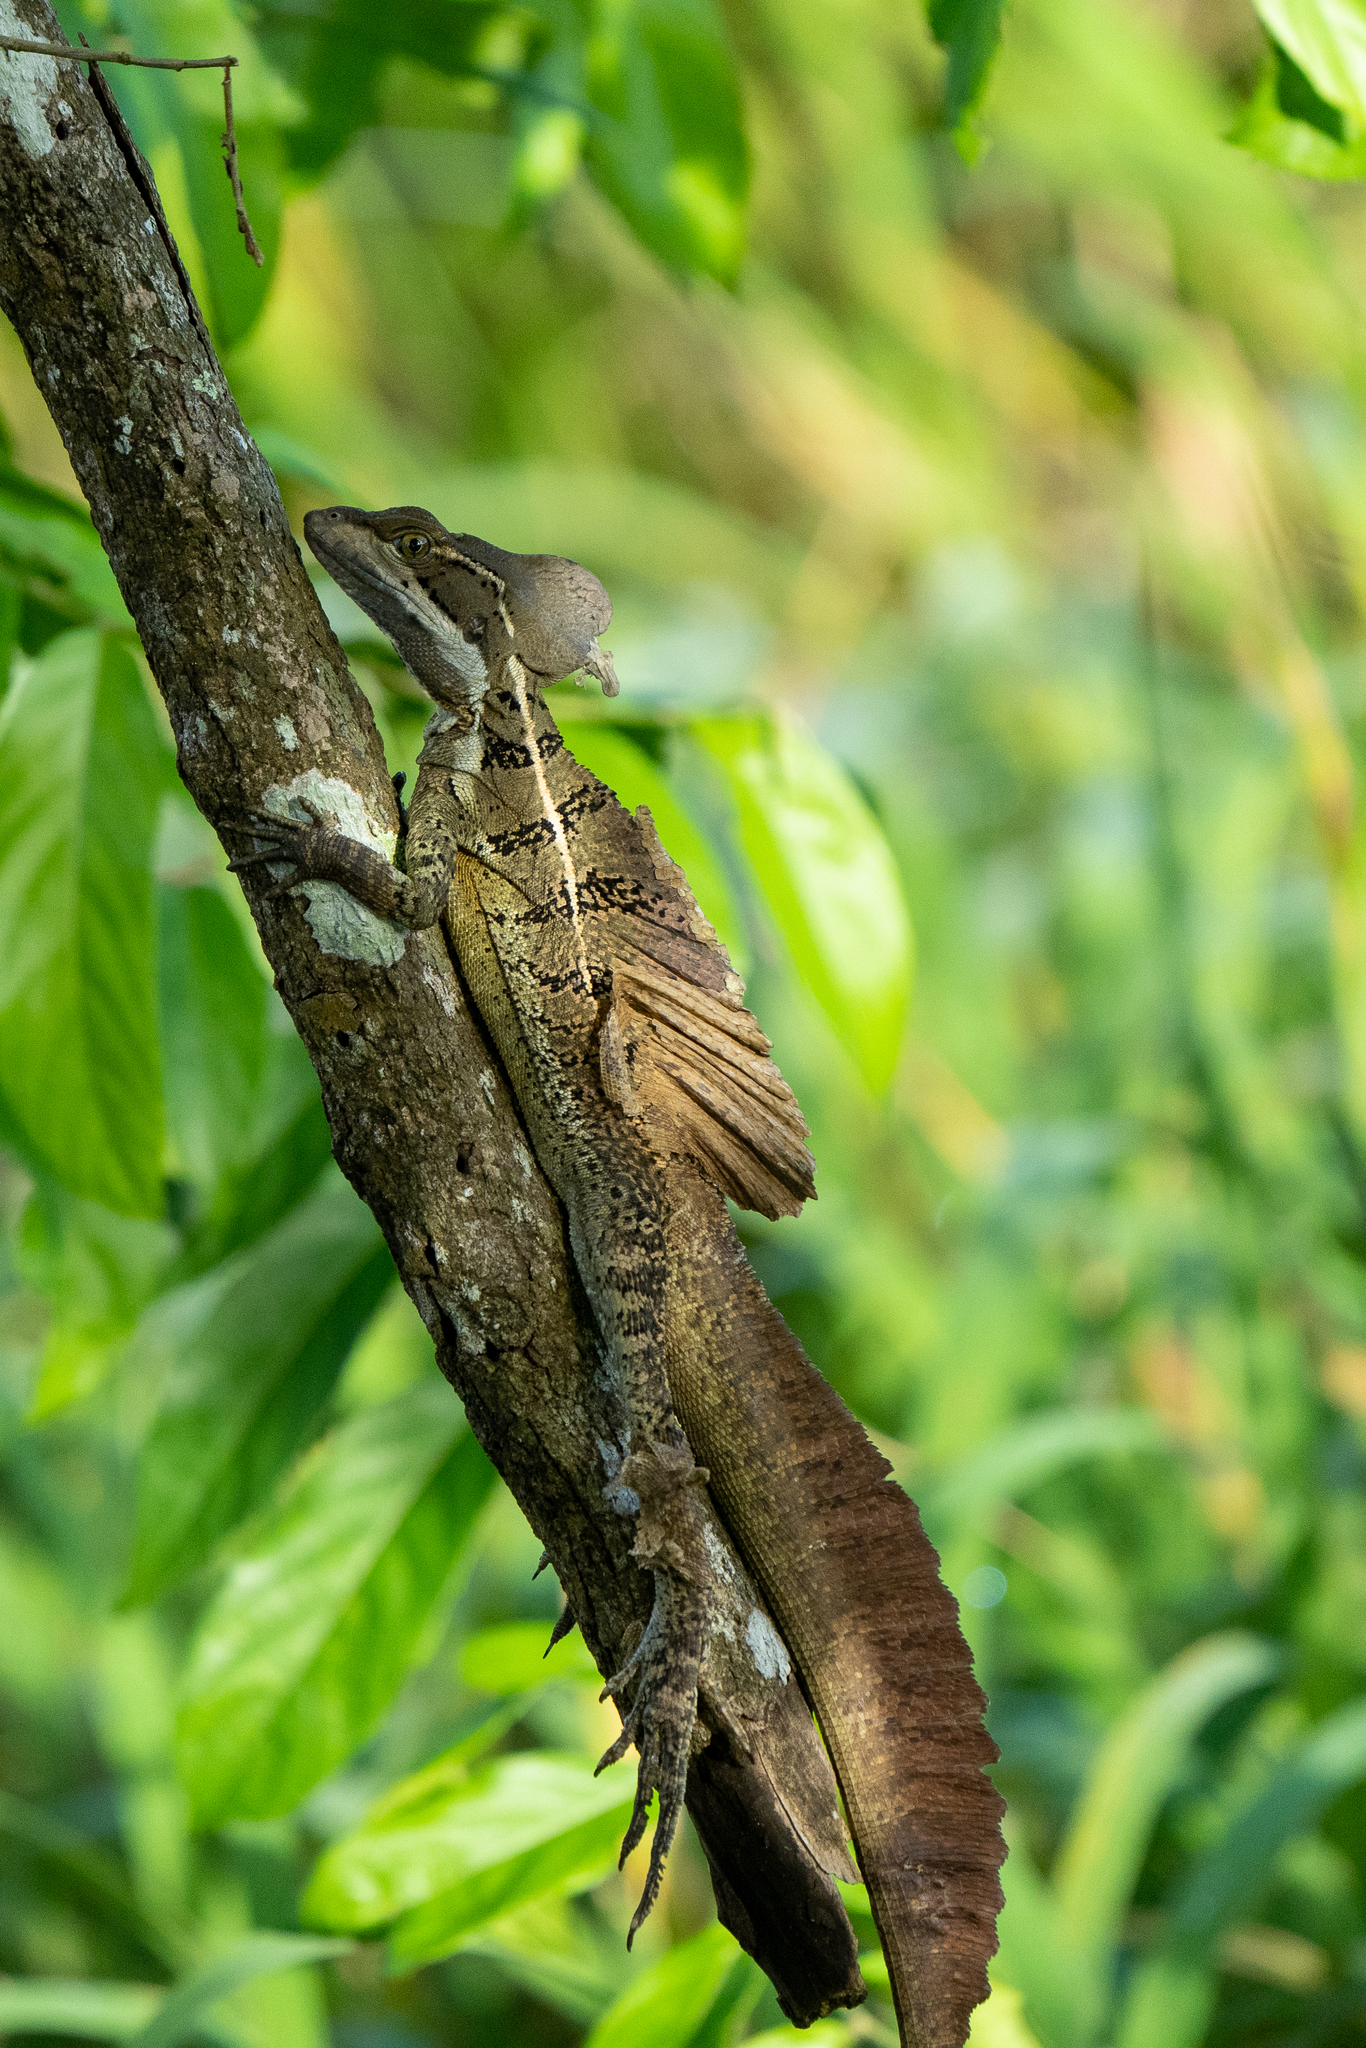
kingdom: Animalia
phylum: Chordata
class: Squamata
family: Corytophanidae
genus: Basiliscus
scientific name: Basiliscus basiliscus
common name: Common basilisk
